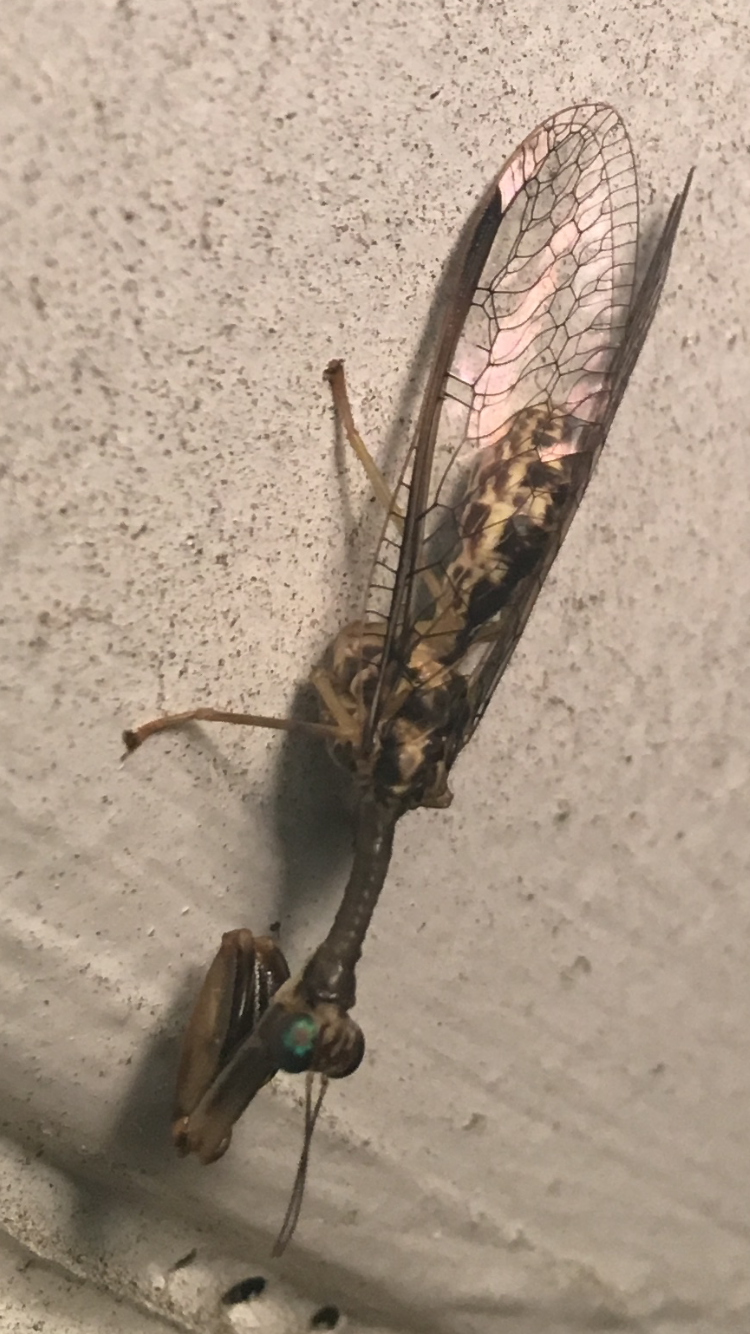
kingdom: Animalia
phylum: Arthropoda
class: Insecta
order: Neuroptera
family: Mantispidae
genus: Dicromantispa
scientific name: Dicromantispa sayi
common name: Say's mantidfly
